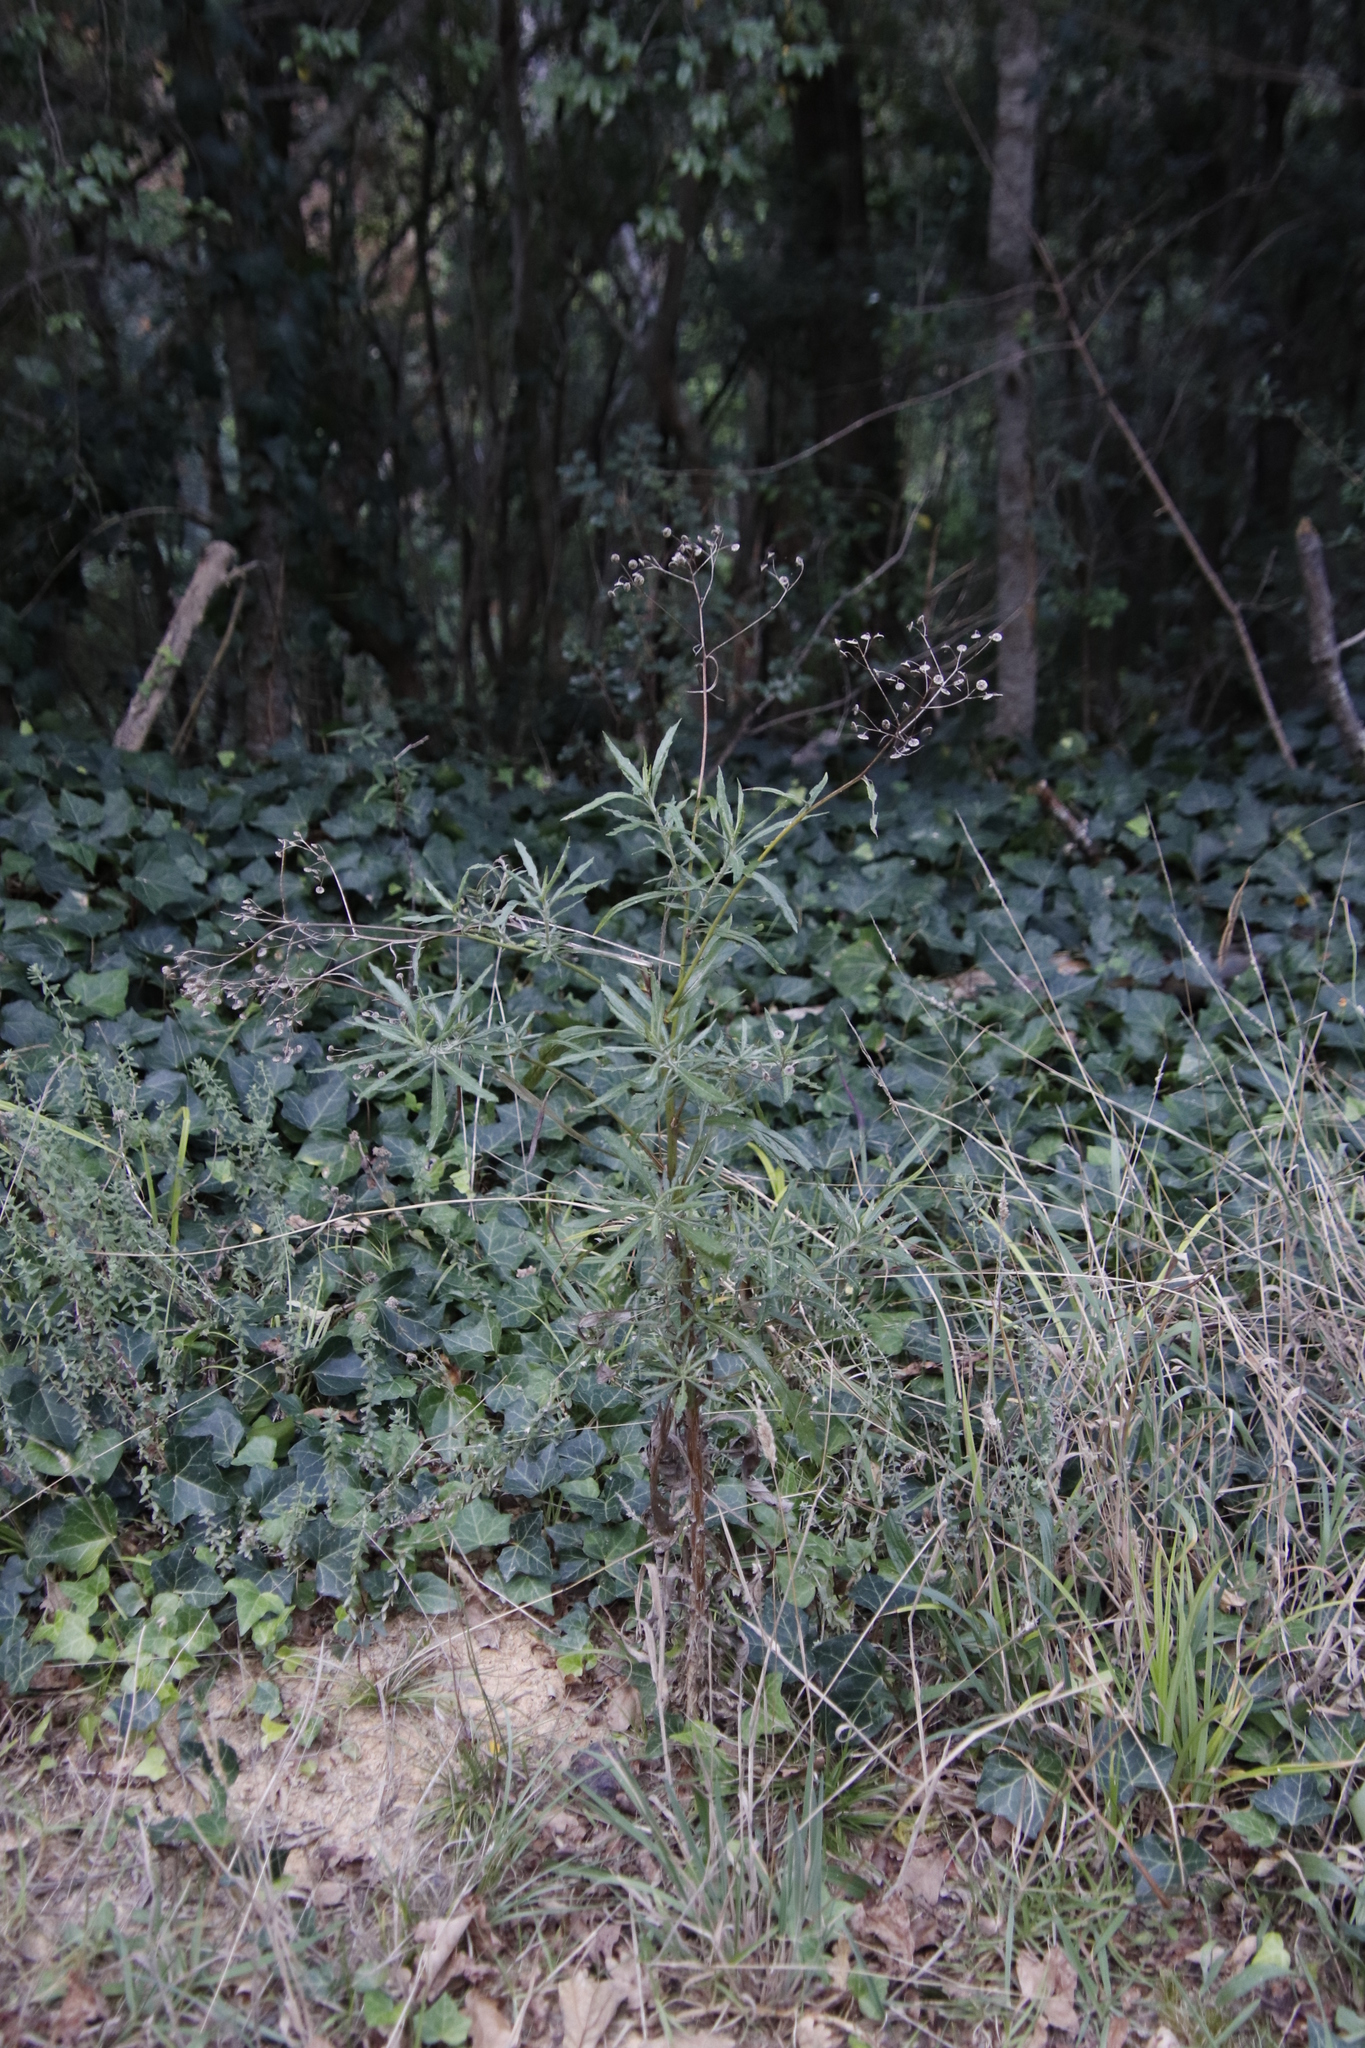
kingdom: Plantae
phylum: Tracheophyta
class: Magnoliopsida
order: Asterales
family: Asteraceae
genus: Senecio
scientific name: Senecio pterophorus
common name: Shoddy ragwort
